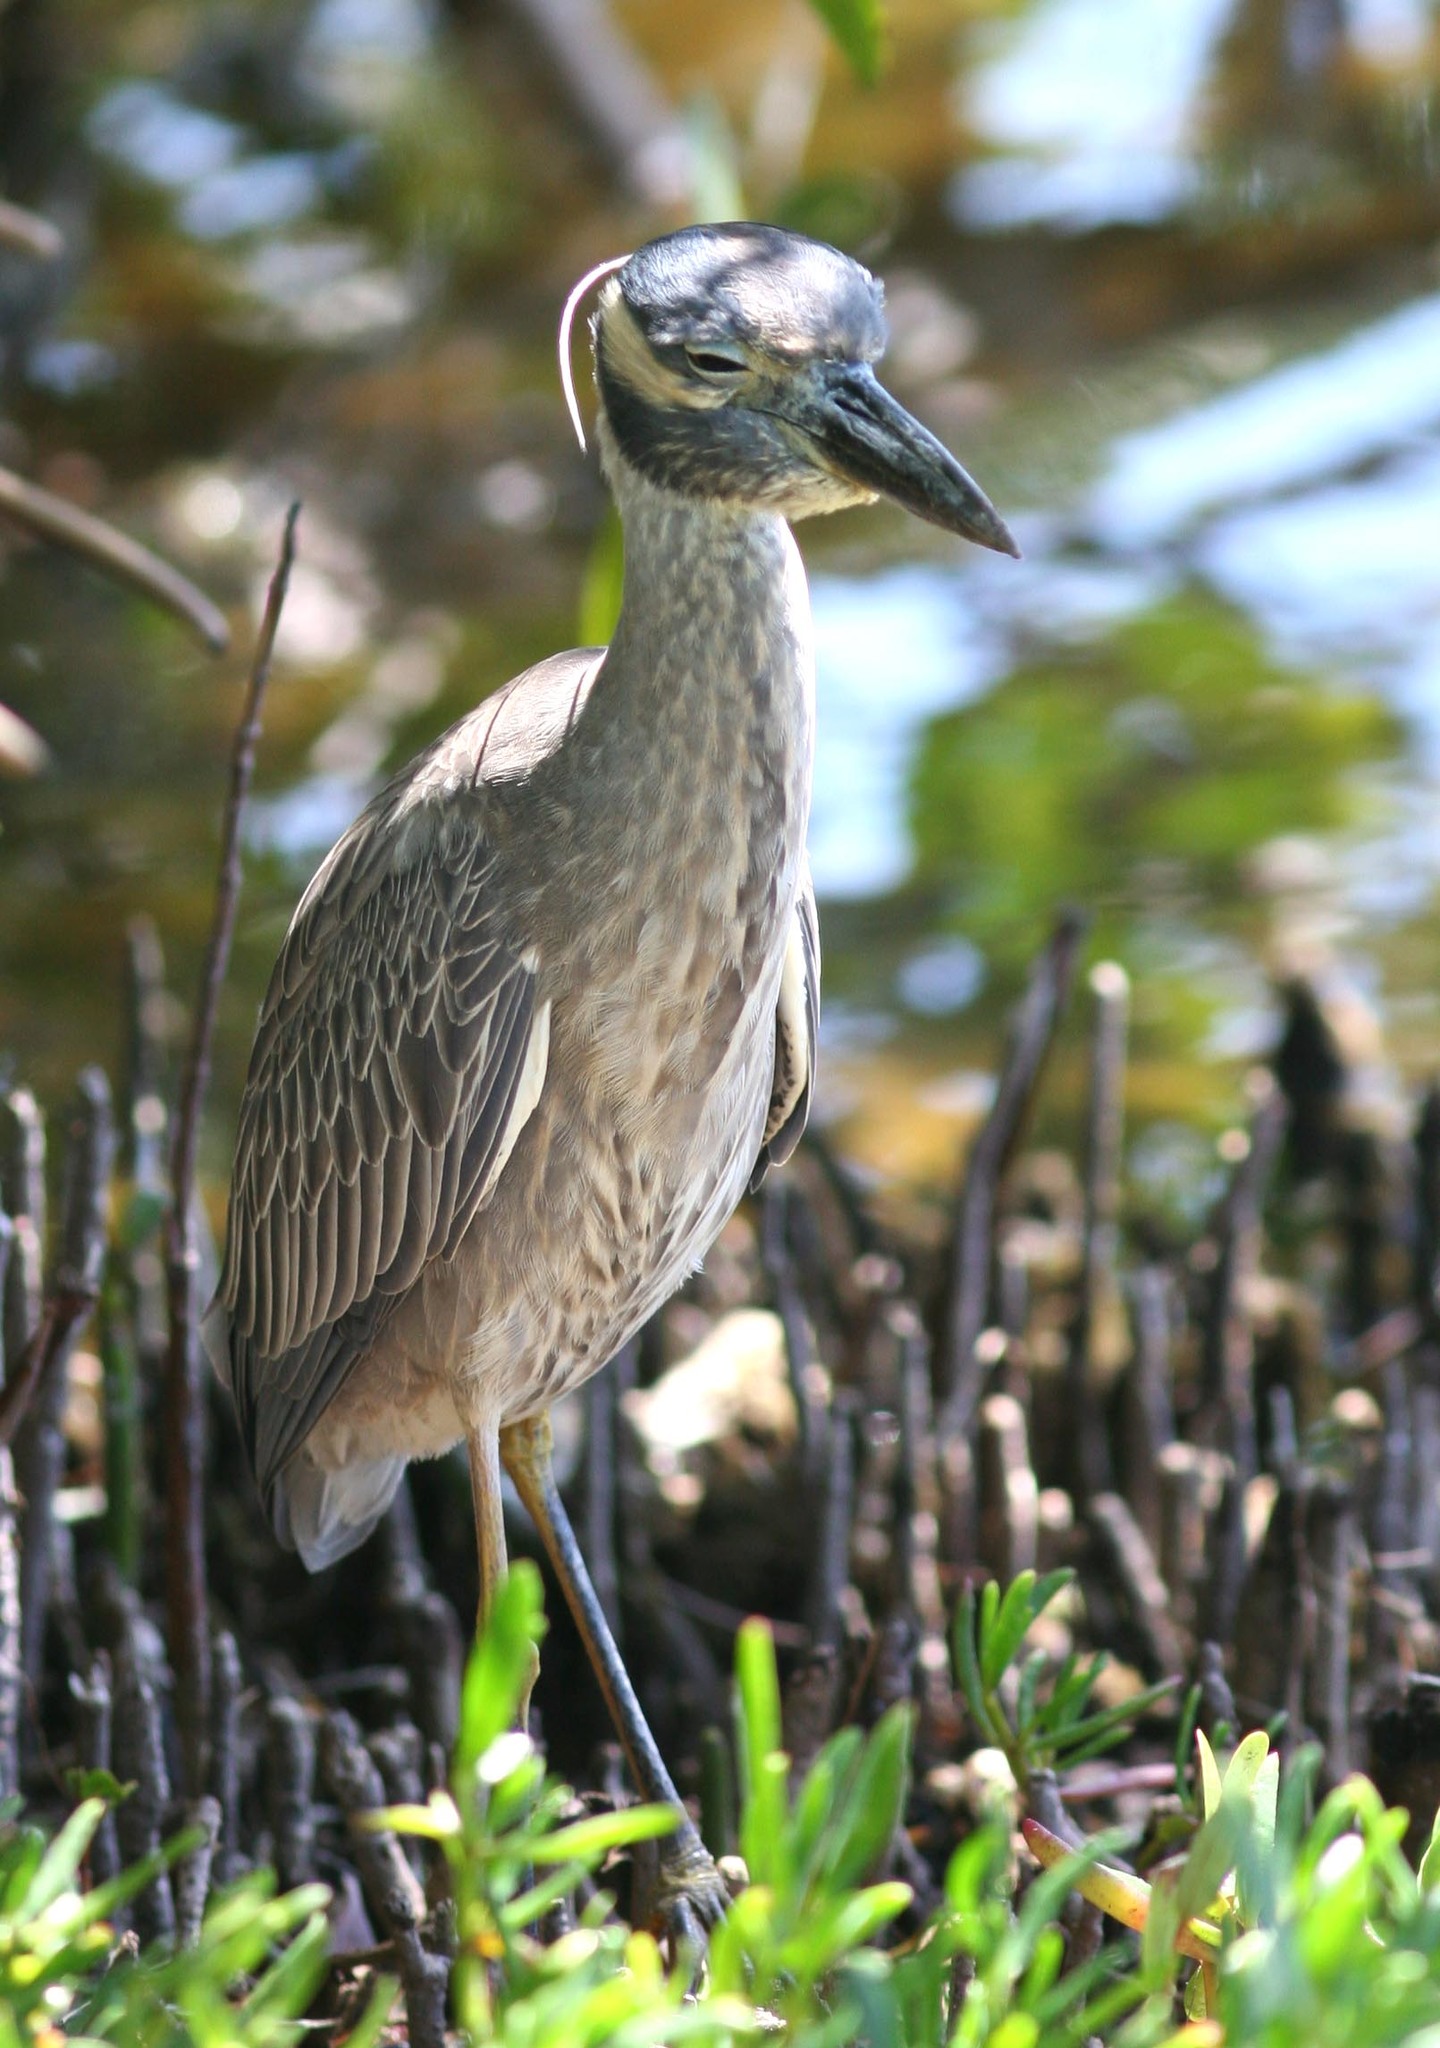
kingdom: Animalia
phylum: Chordata
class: Aves
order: Pelecaniformes
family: Ardeidae
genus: Nyctanassa
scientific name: Nyctanassa violacea
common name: Yellow-crowned night heron
